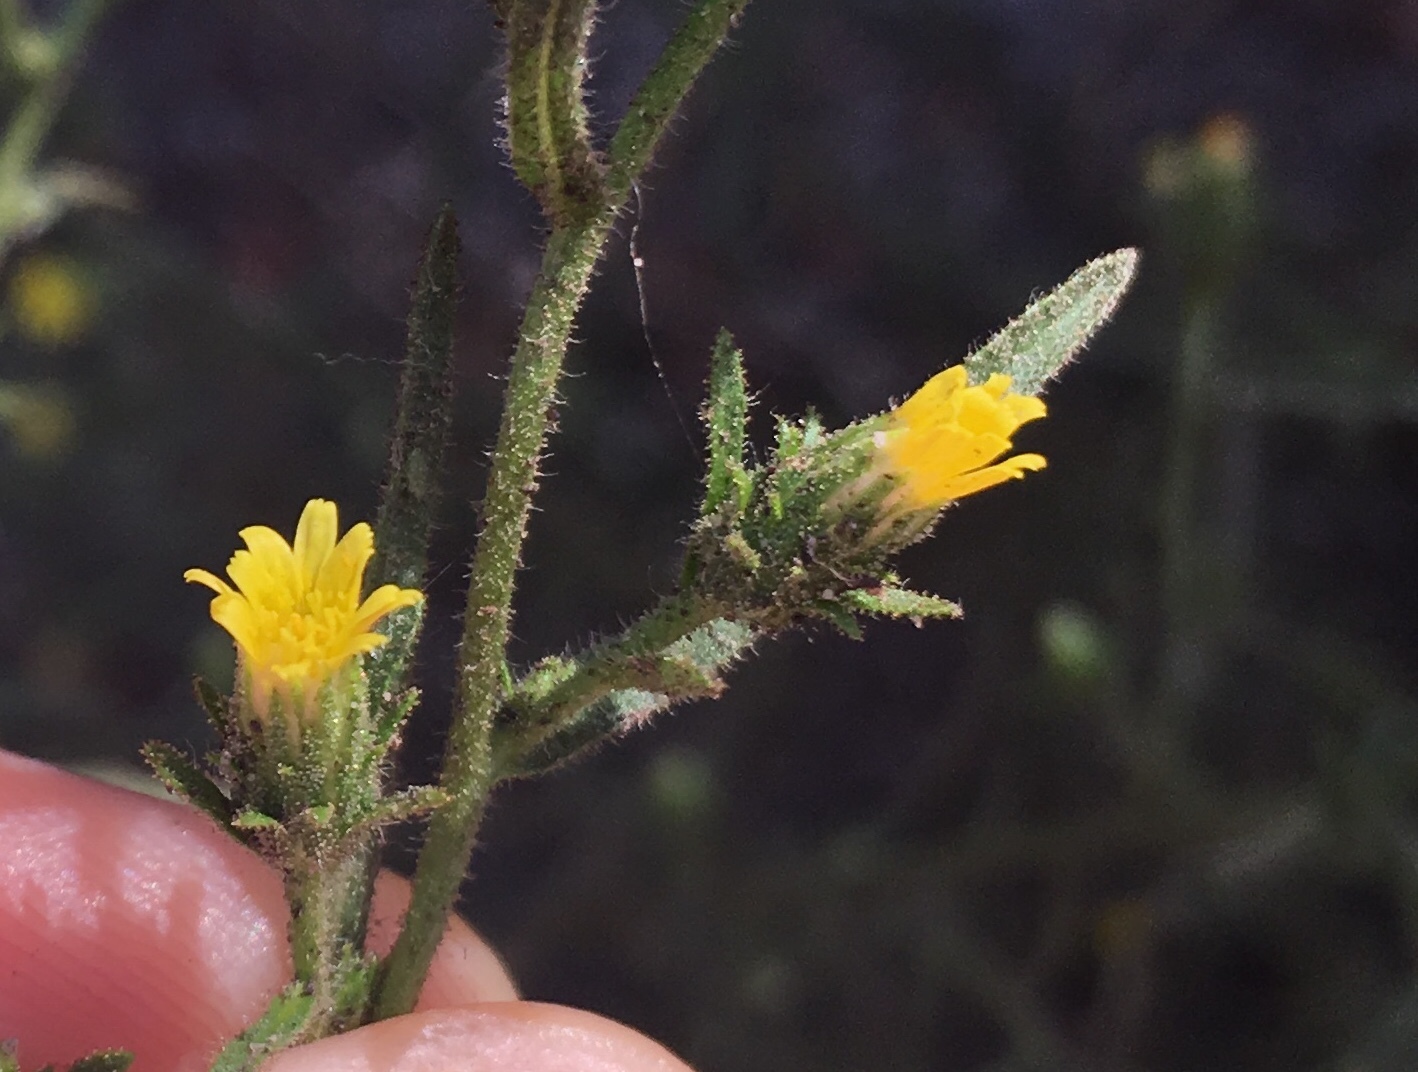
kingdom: Plantae
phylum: Tracheophyta
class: Magnoliopsida
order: Asterales
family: Asteraceae
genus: Dittrichia
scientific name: Dittrichia graveolens
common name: Stinking fleabane
